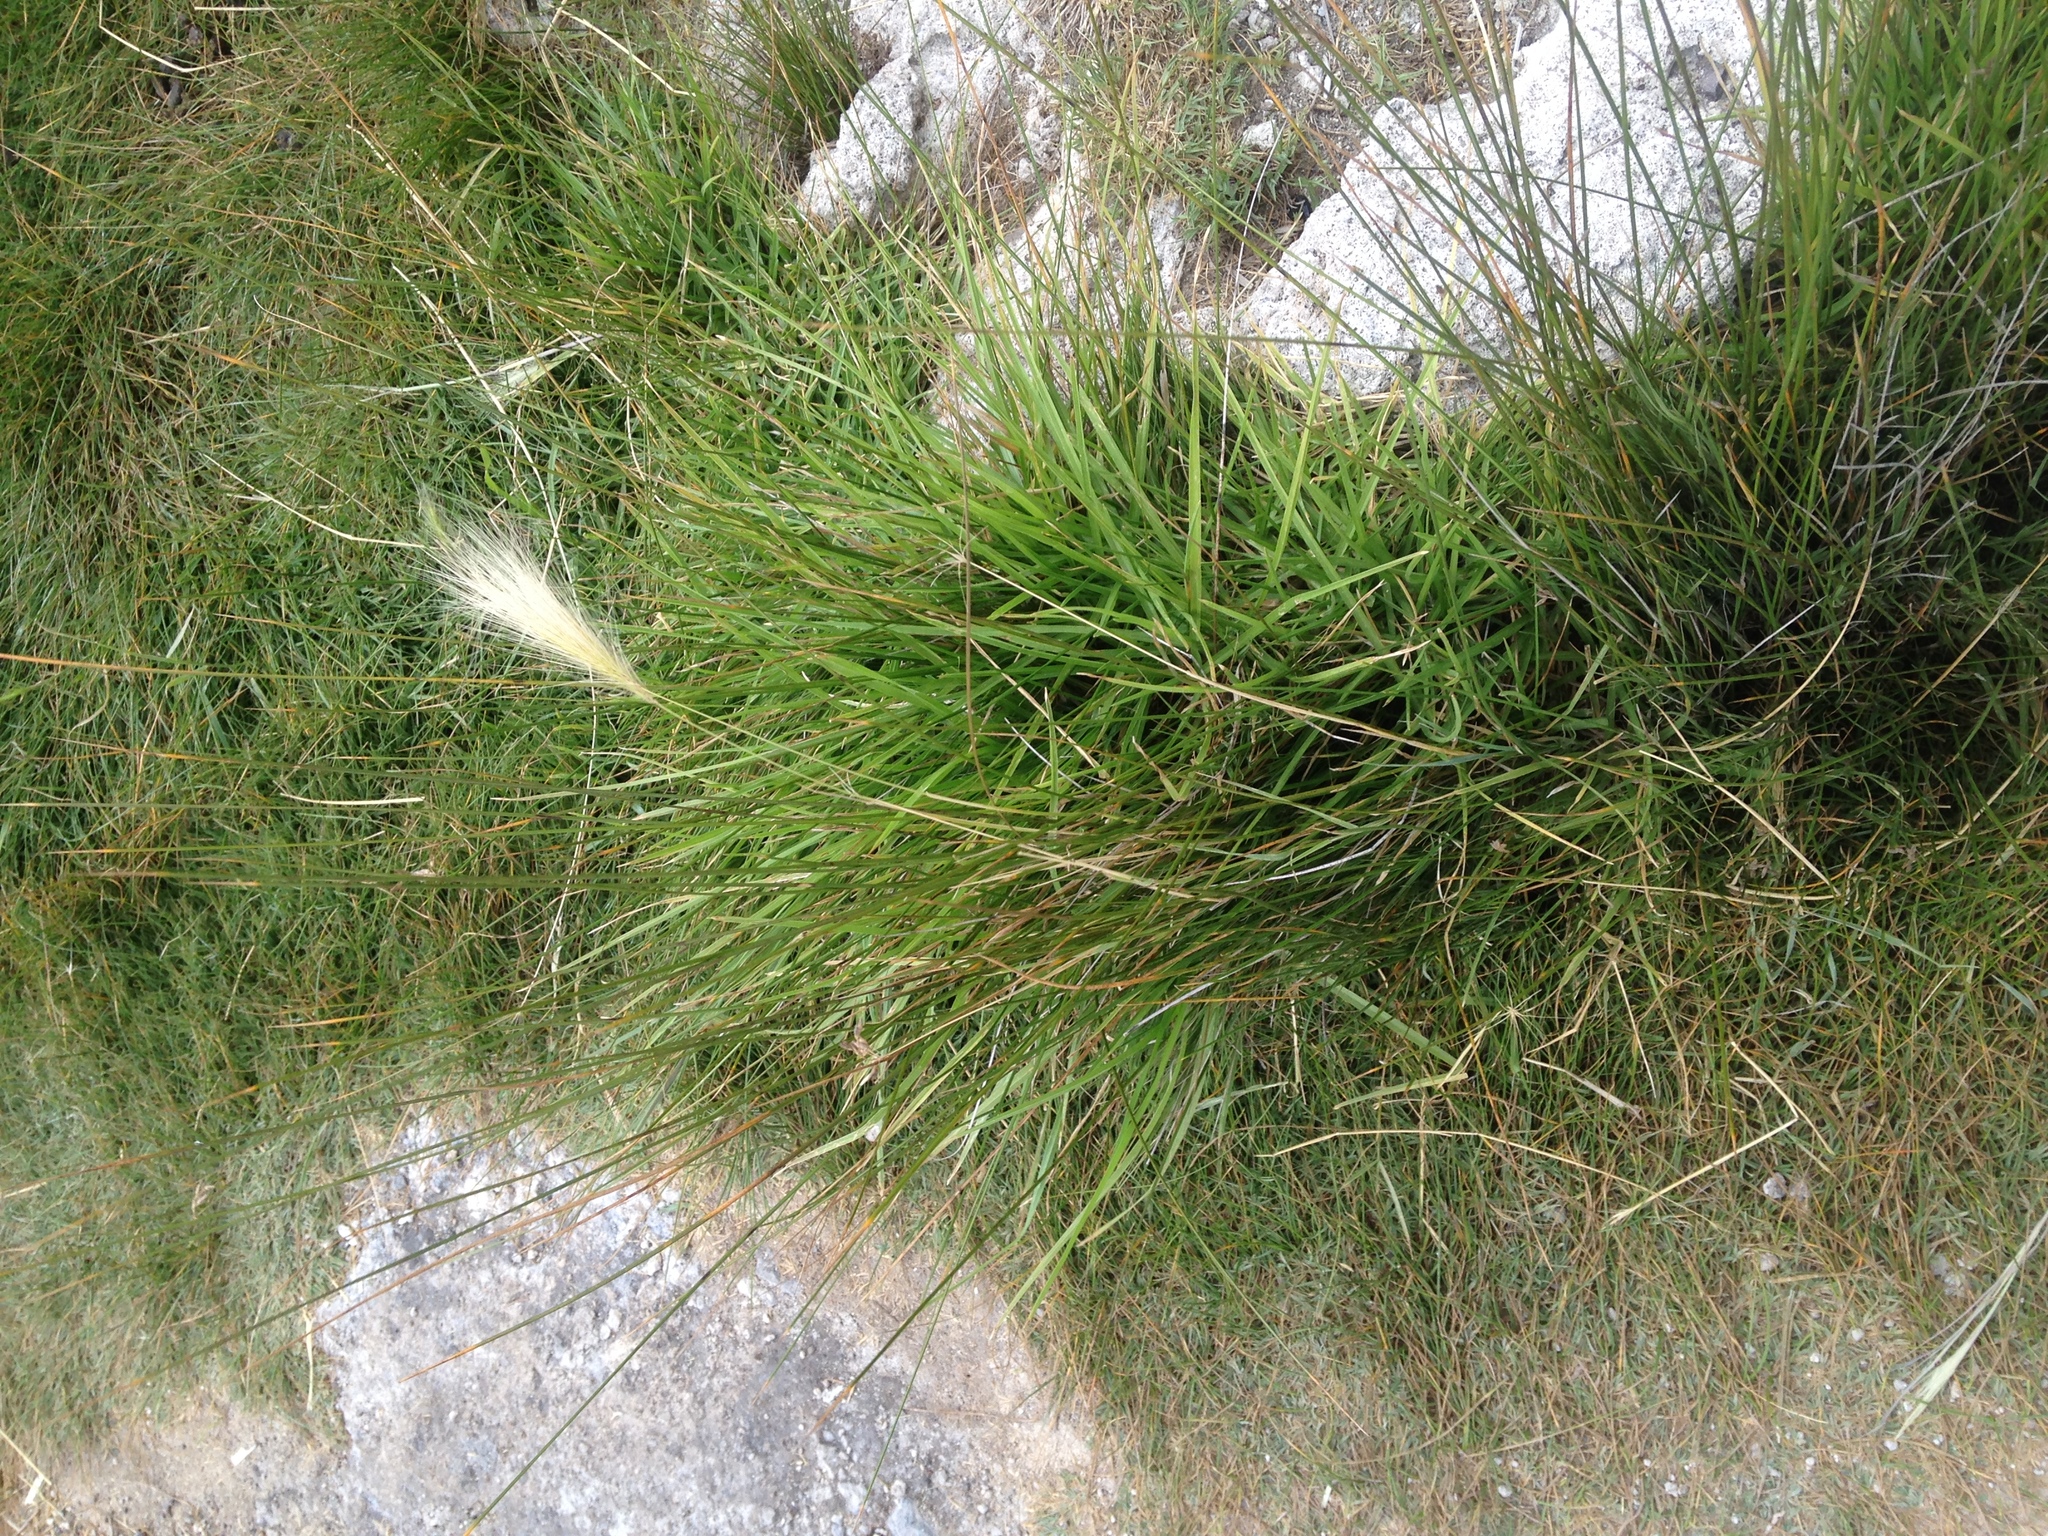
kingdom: Plantae
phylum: Tracheophyta
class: Liliopsida
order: Poales
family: Poaceae
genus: Hordeum
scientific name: Hordeum jubatum
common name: Foxtail barley
